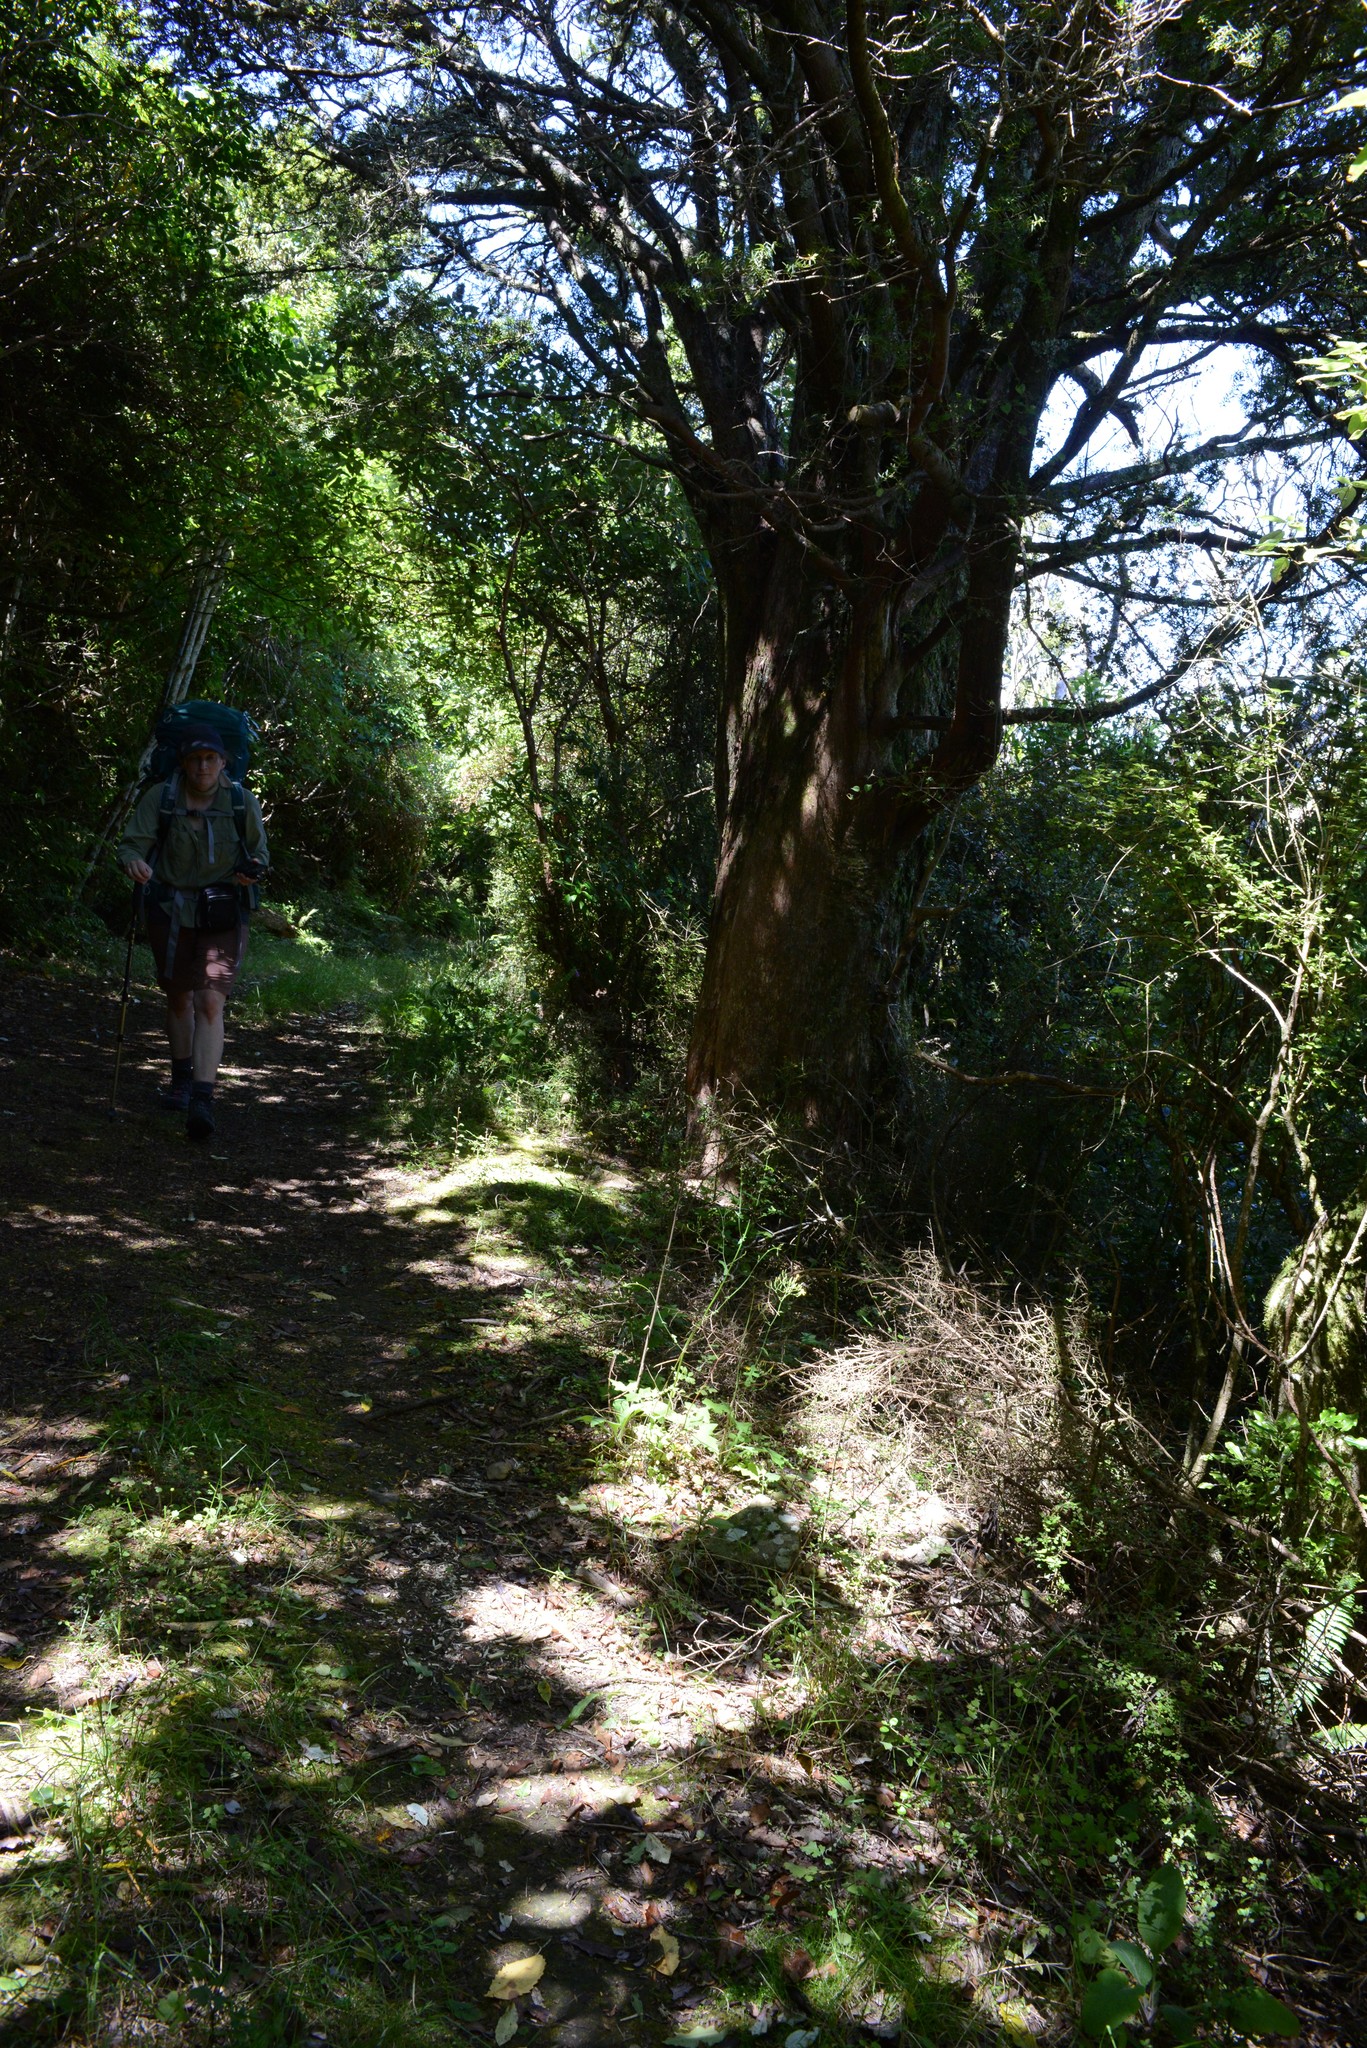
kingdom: Plantae
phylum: Tracheophyta
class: Magnoliopsida
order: Asterales
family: Asteraceae
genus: Senecio
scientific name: Senecio wairauensis
